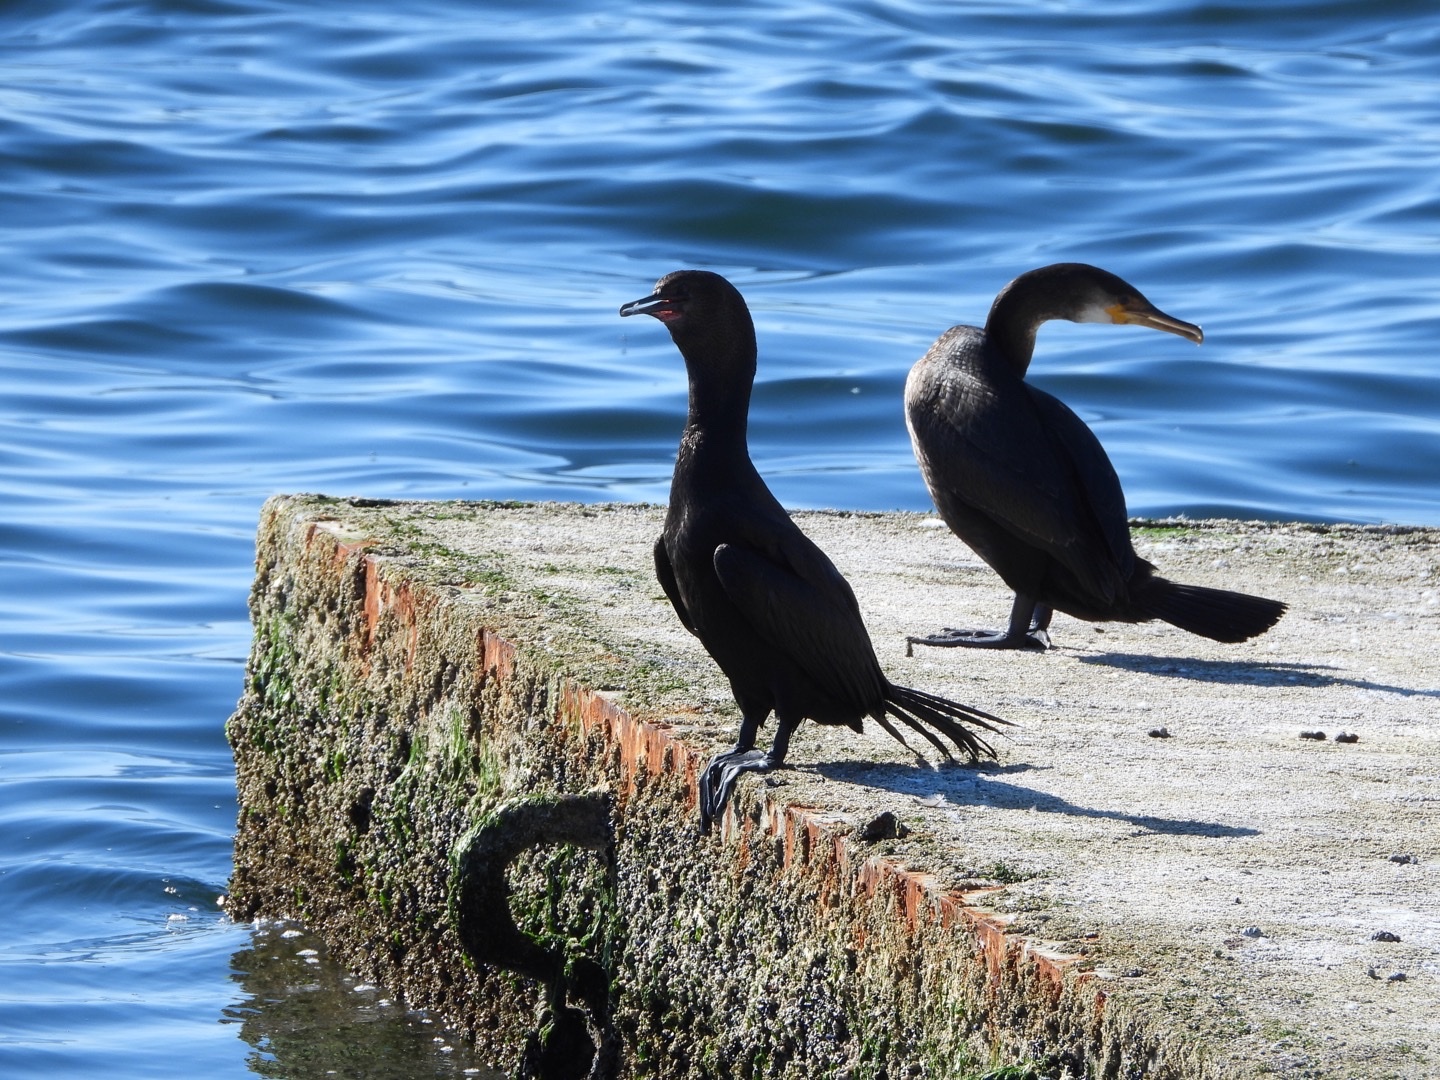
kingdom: Animalia
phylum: Chordata
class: Aves
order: Suliformes
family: Phalacrocoracidae
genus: Phalacrocorax
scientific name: Phalacrocorax pelagicus
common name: Pelagic cormorant
